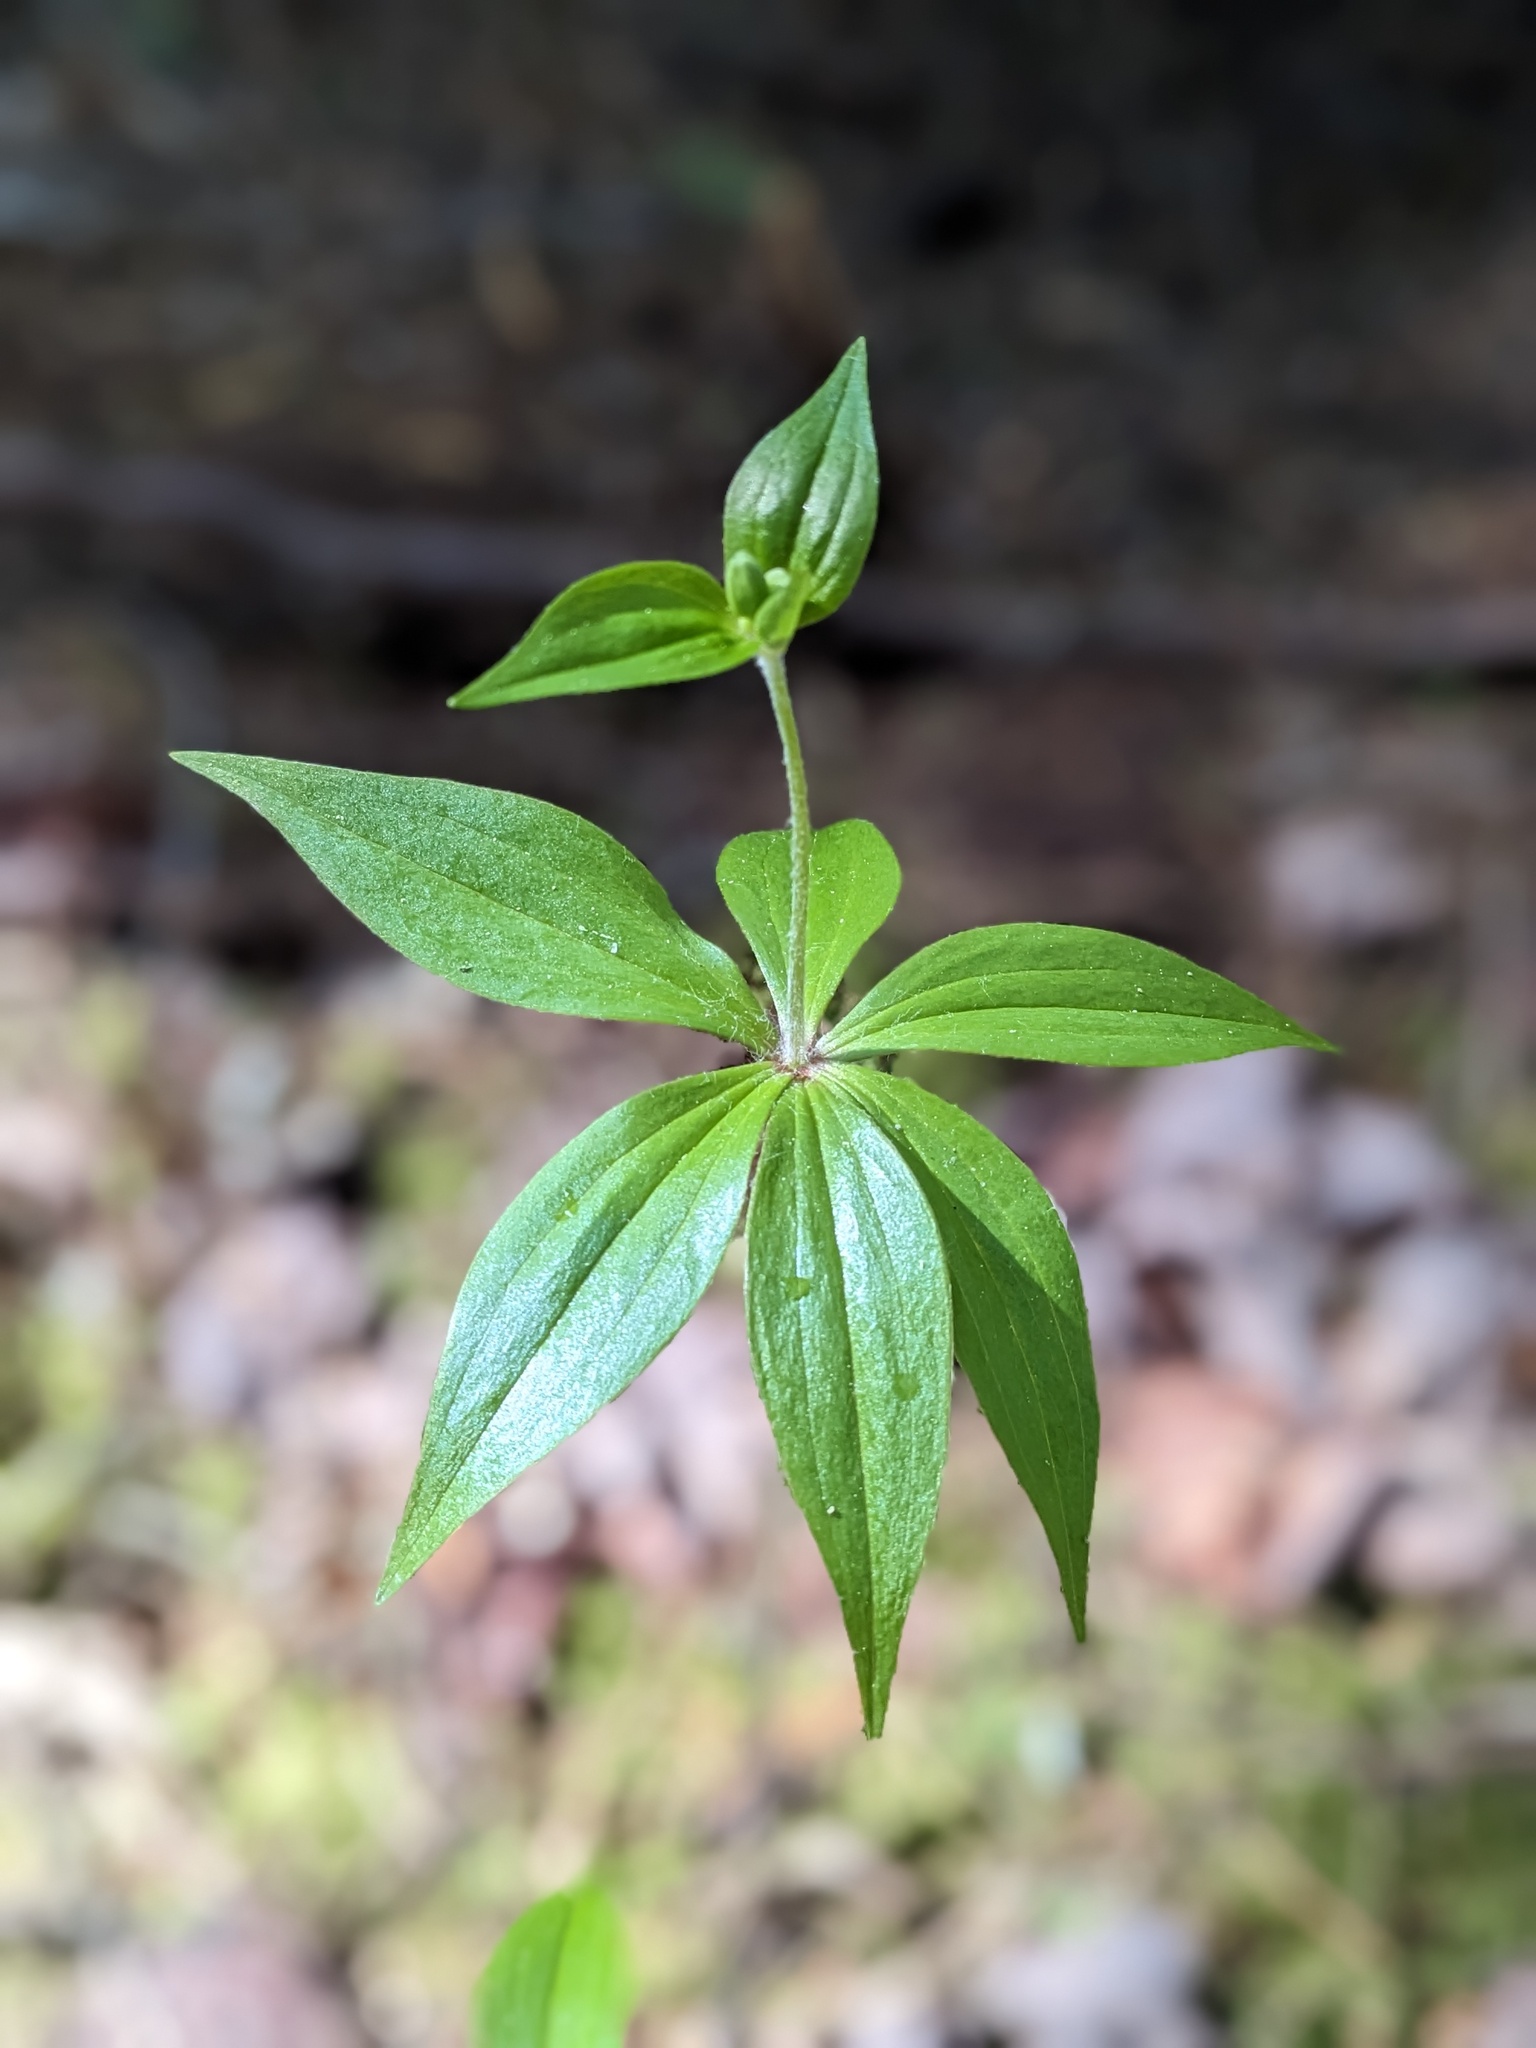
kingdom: Plantae
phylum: Tracheophyta
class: Liliopsida
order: Liliales
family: Liliaceae
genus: Medeola
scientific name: Medeola virginiana
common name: Indian cucumber-root
